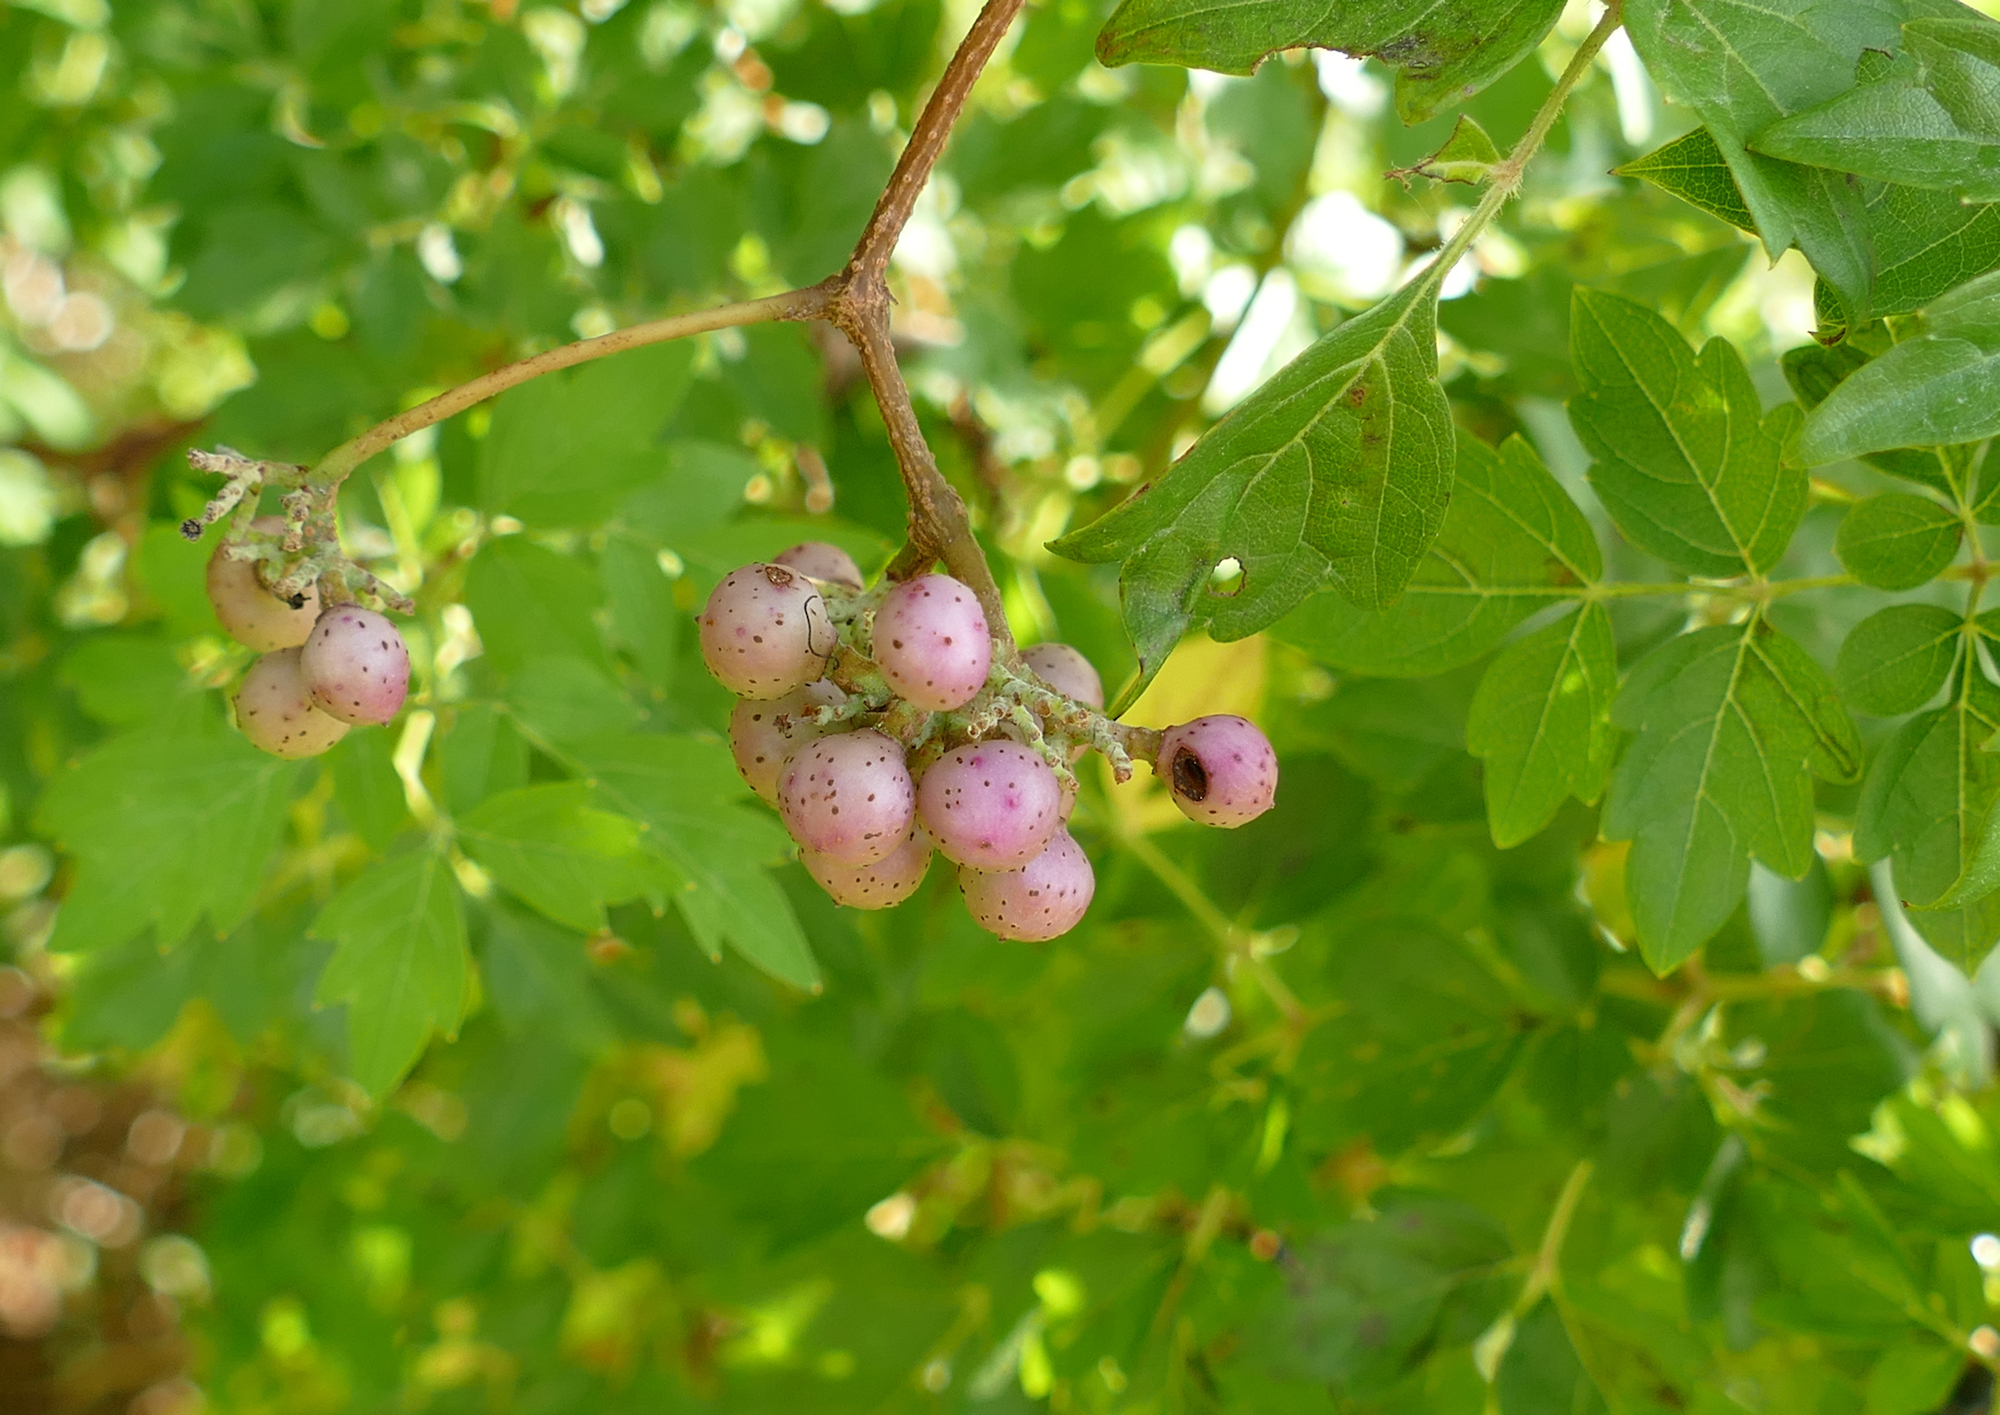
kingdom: Plantae
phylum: Tracheophyta
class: Magnoliopsida
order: Vitales
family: Vitaceae
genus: Nekemias
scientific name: Nekemias arborea
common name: Peppervine
